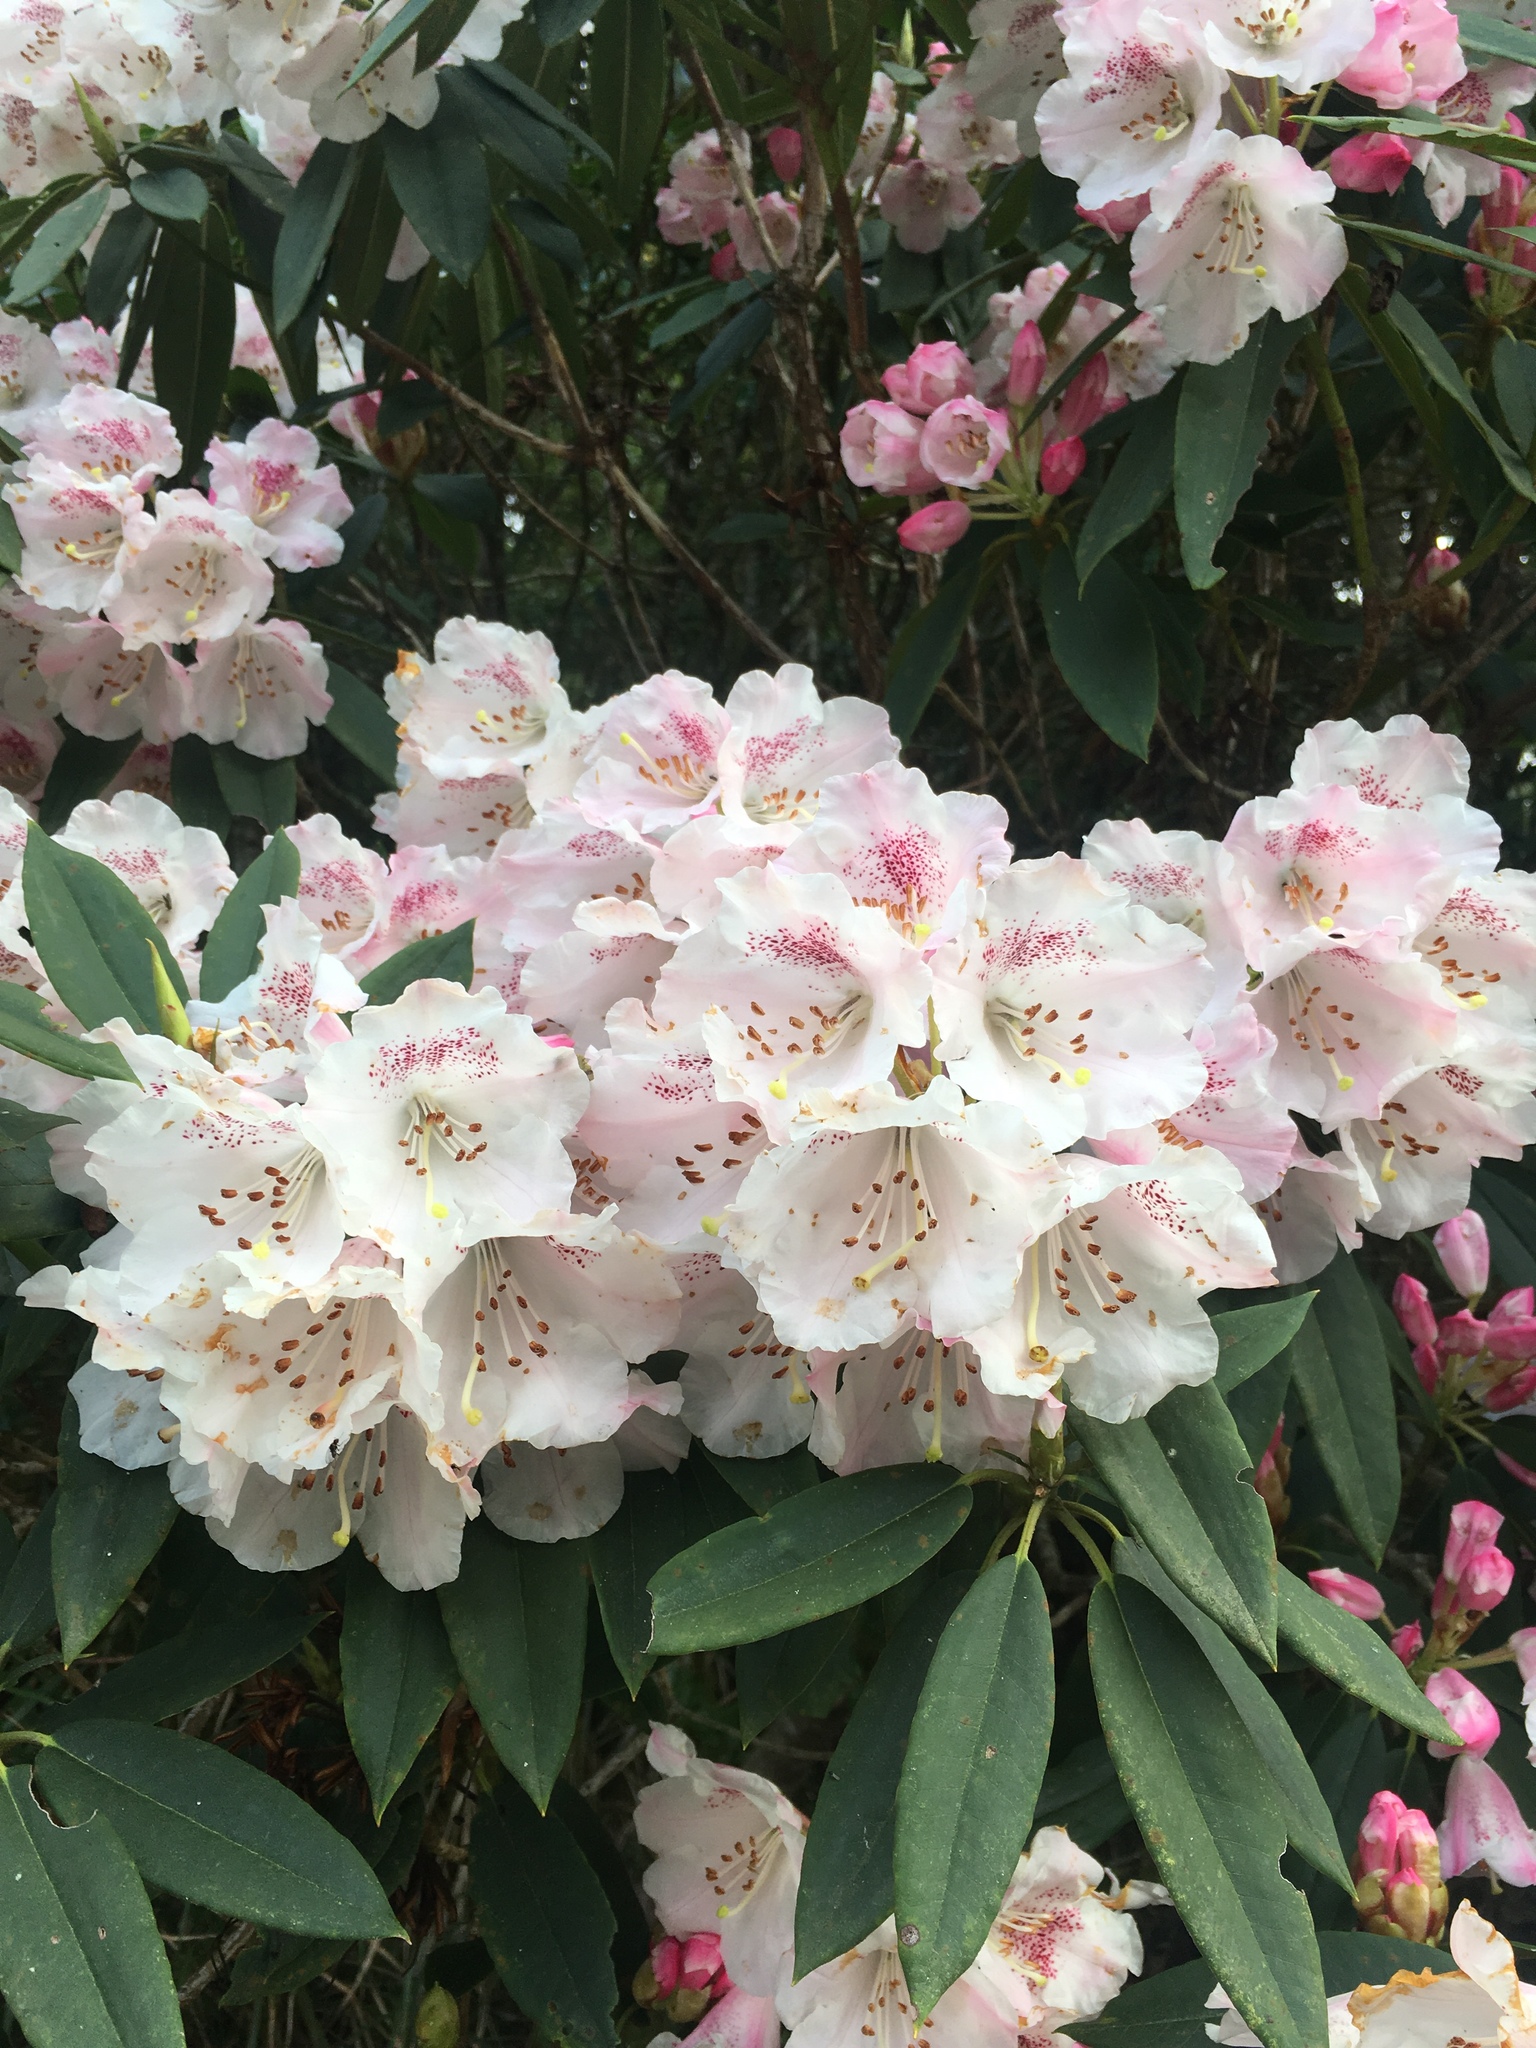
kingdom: Plantae
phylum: Tracheophyta
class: Magnoliopsida
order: Ericales
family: Ericaceae
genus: Rhododendron
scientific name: Rhododendron pseudochrysanthum
